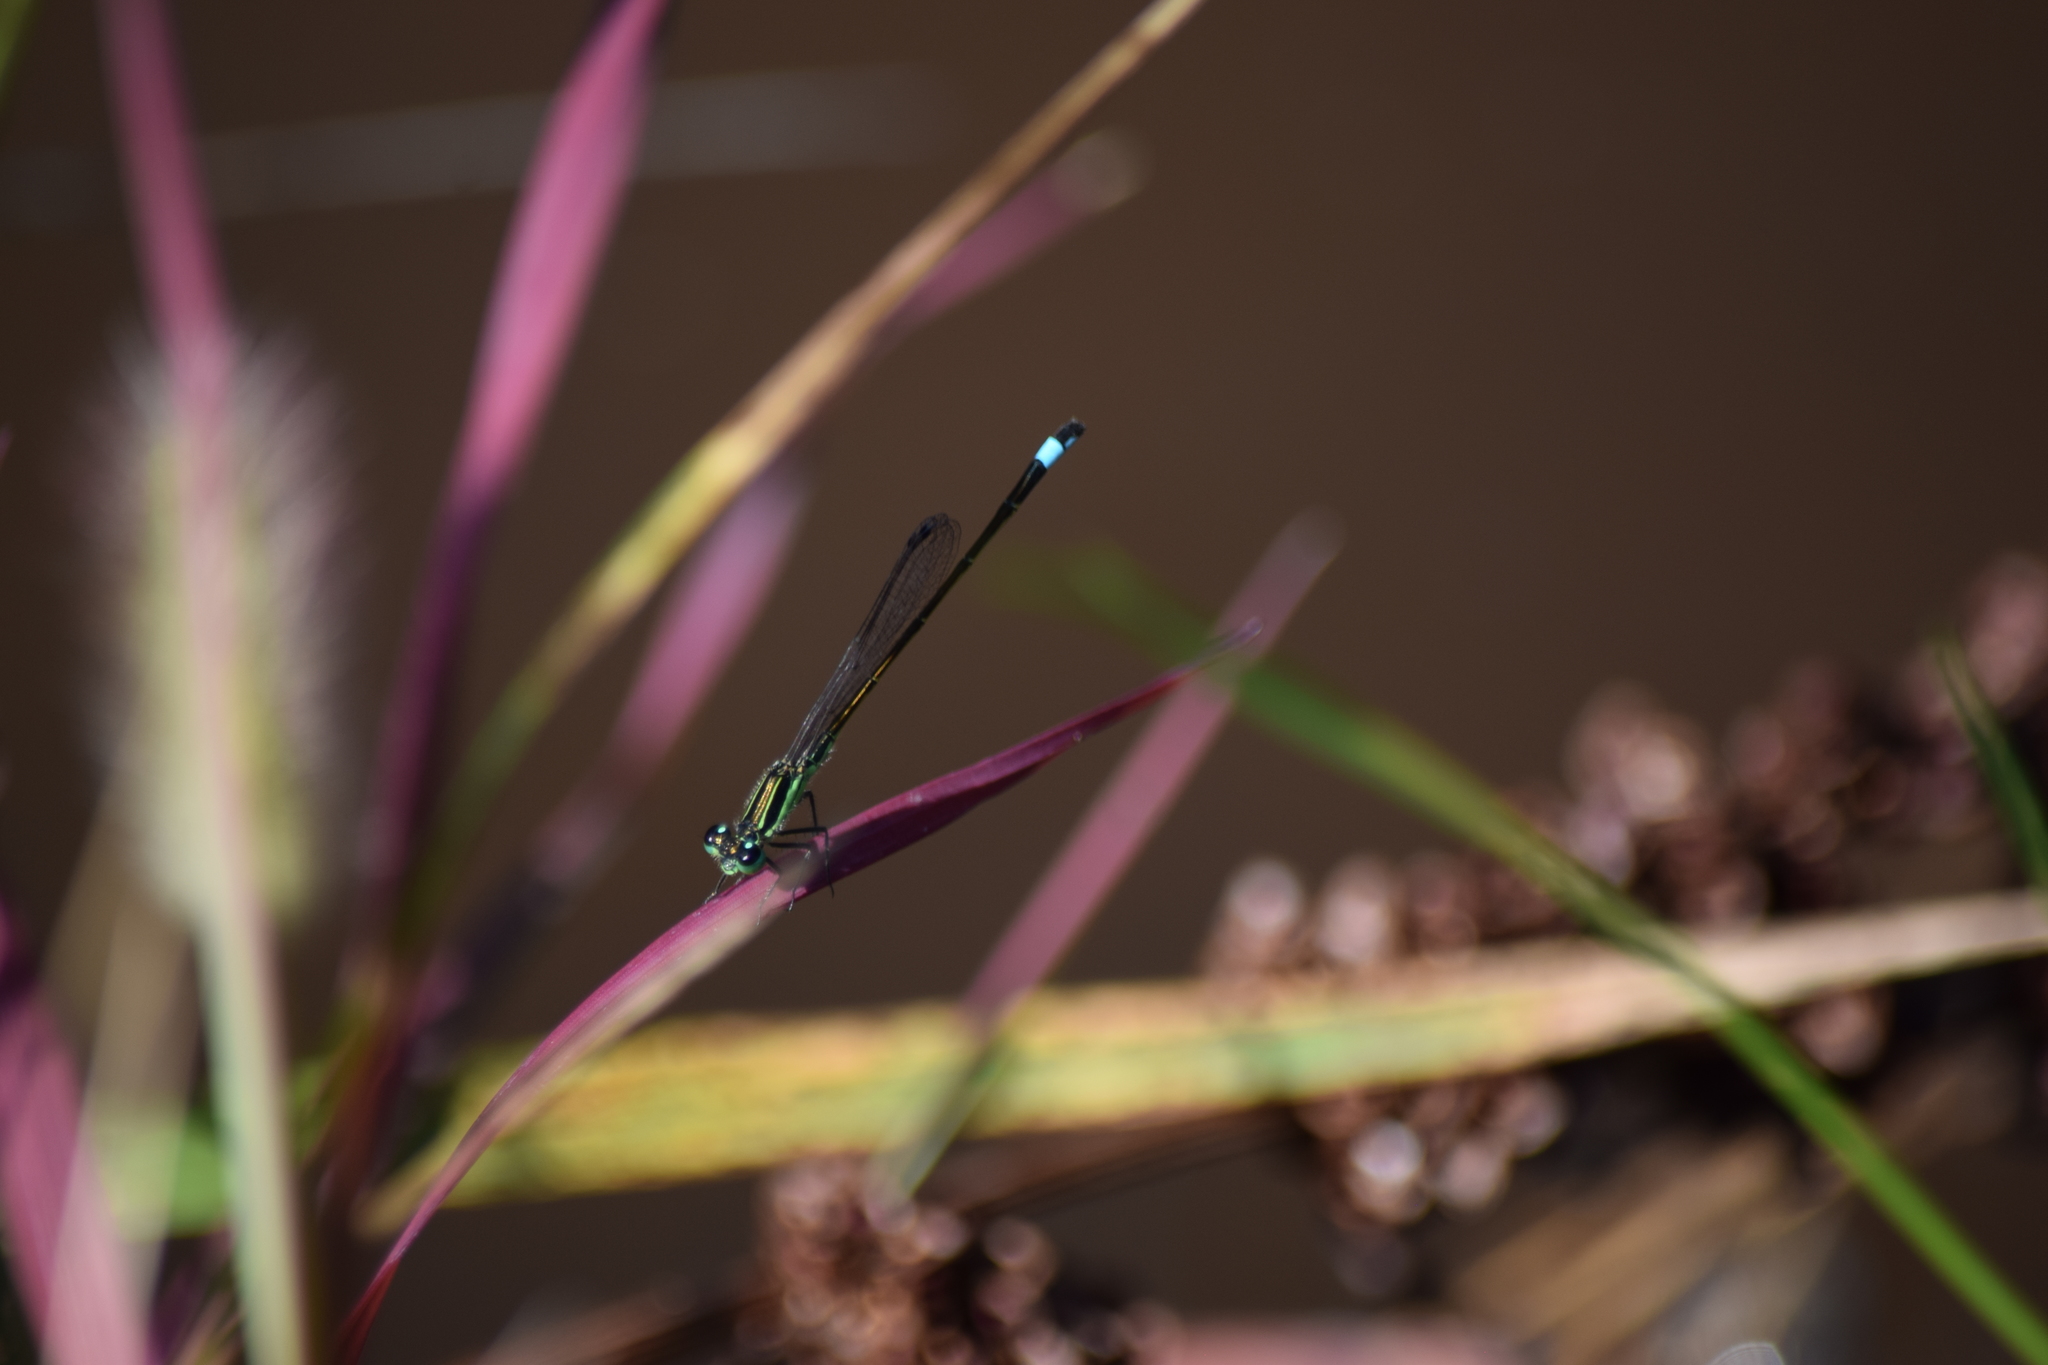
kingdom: Animalia
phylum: Arthropoda
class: Insecta
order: Odonata
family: Coenagrionidae
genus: Ischnura
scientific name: Ischnura ramburii
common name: Rambur's forktail
